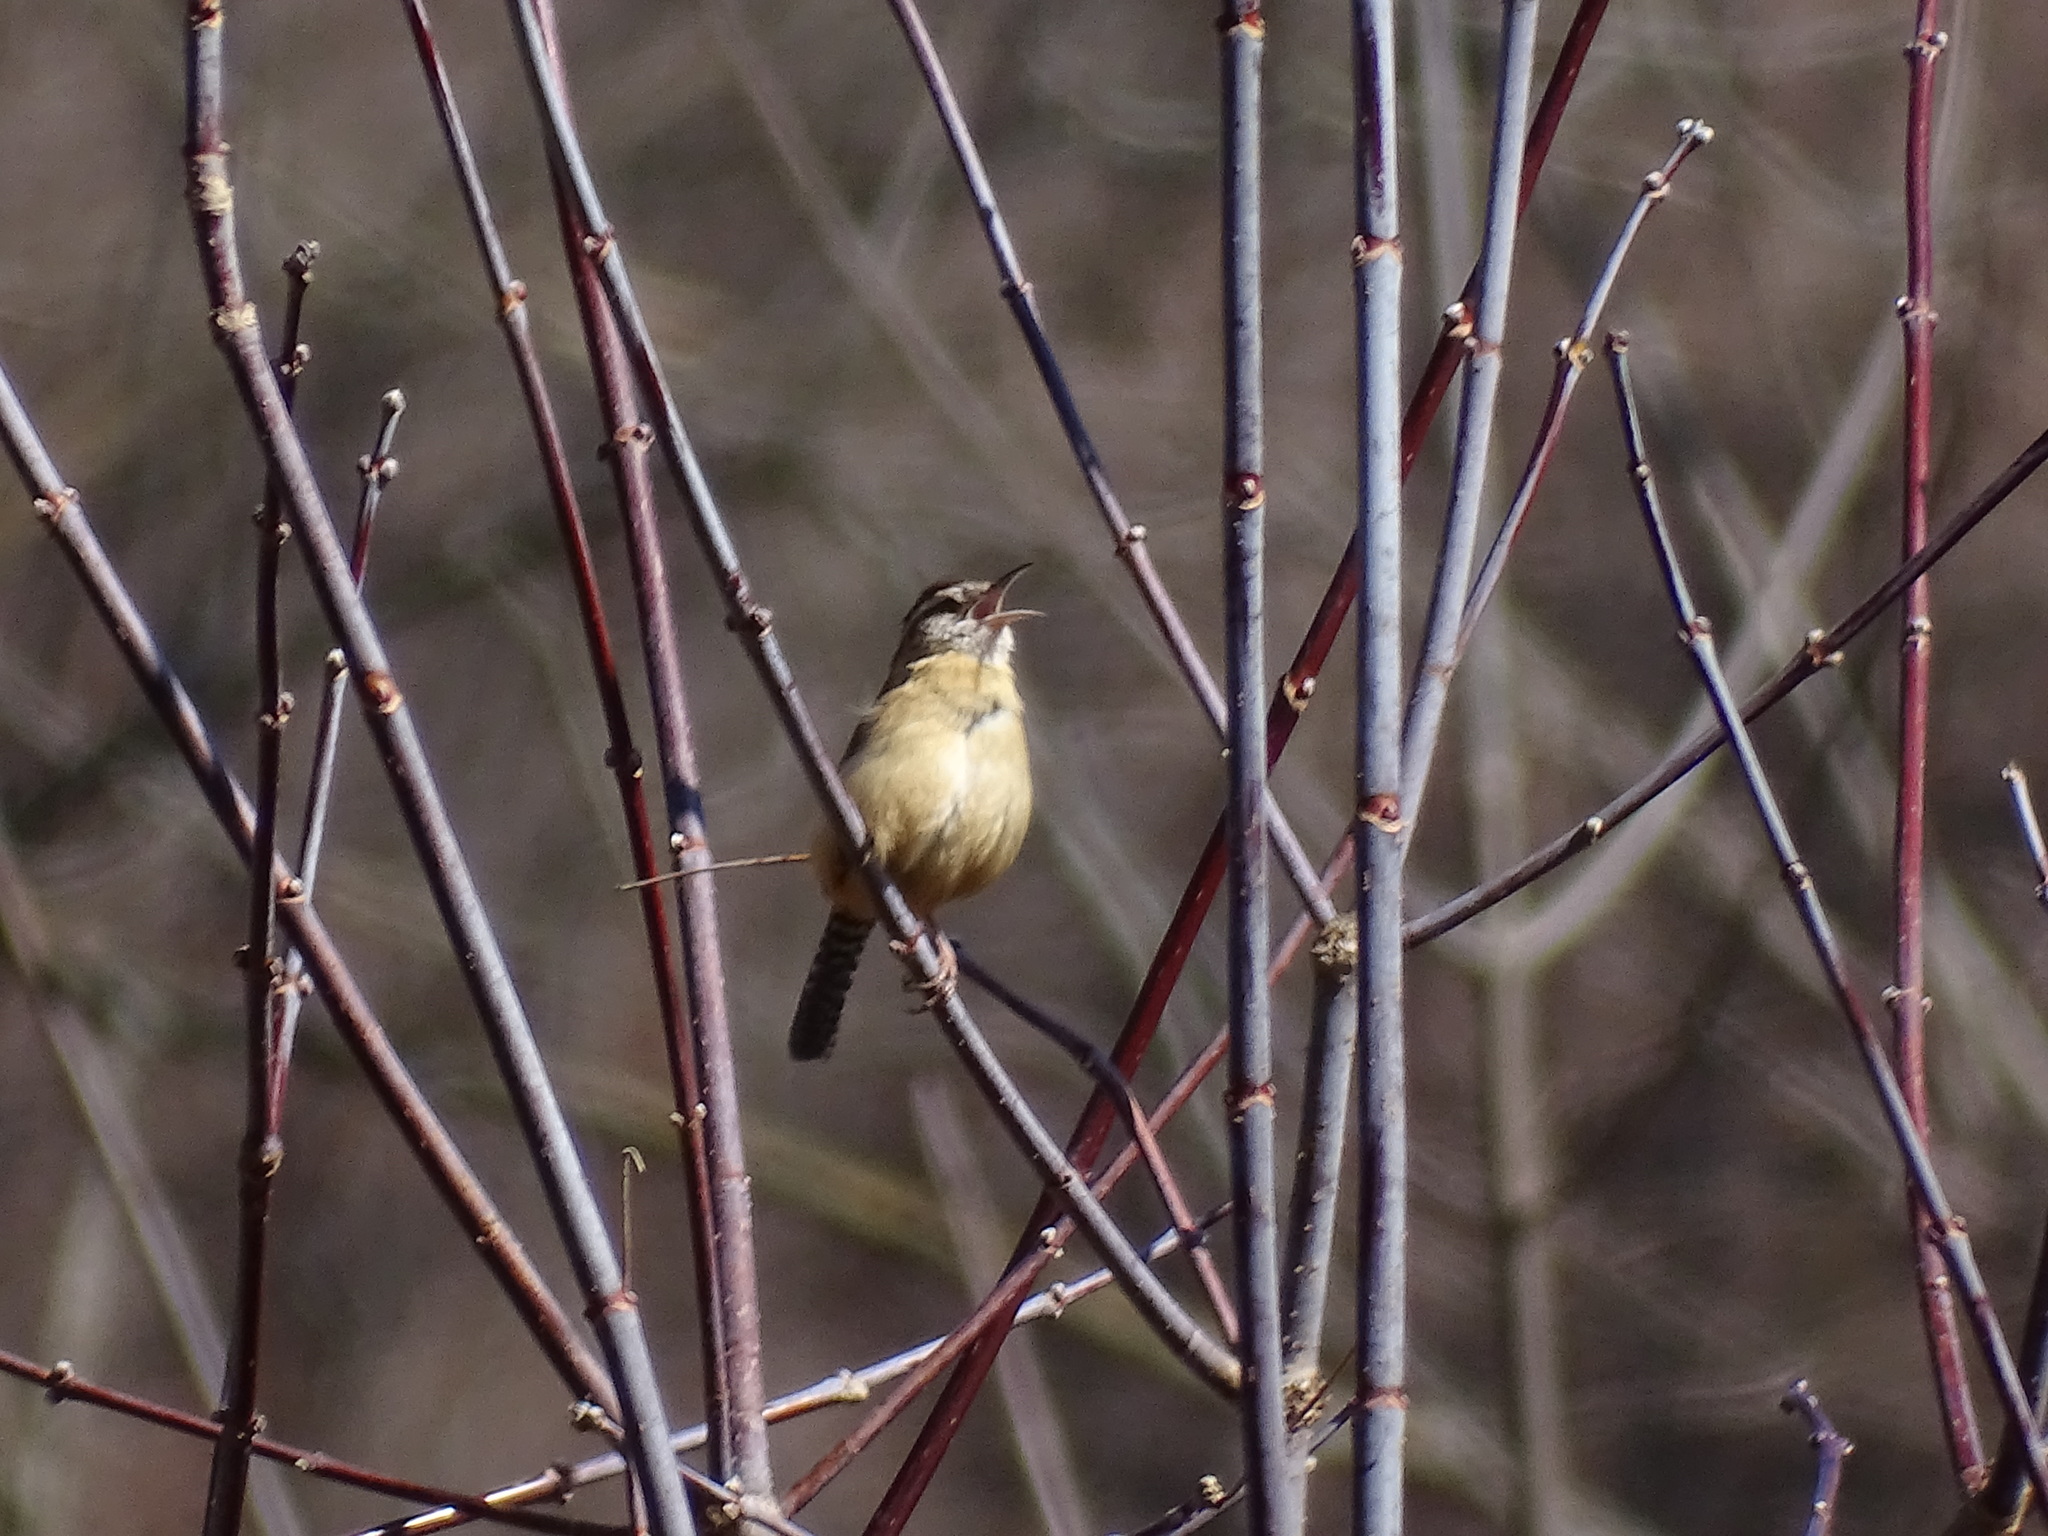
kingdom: Animalia
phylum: Chordata
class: Aves
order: Passeriformes
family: Troglodytidae
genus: Thryothorus
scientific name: Thryothorus ludovicianus
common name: Carolina wren
